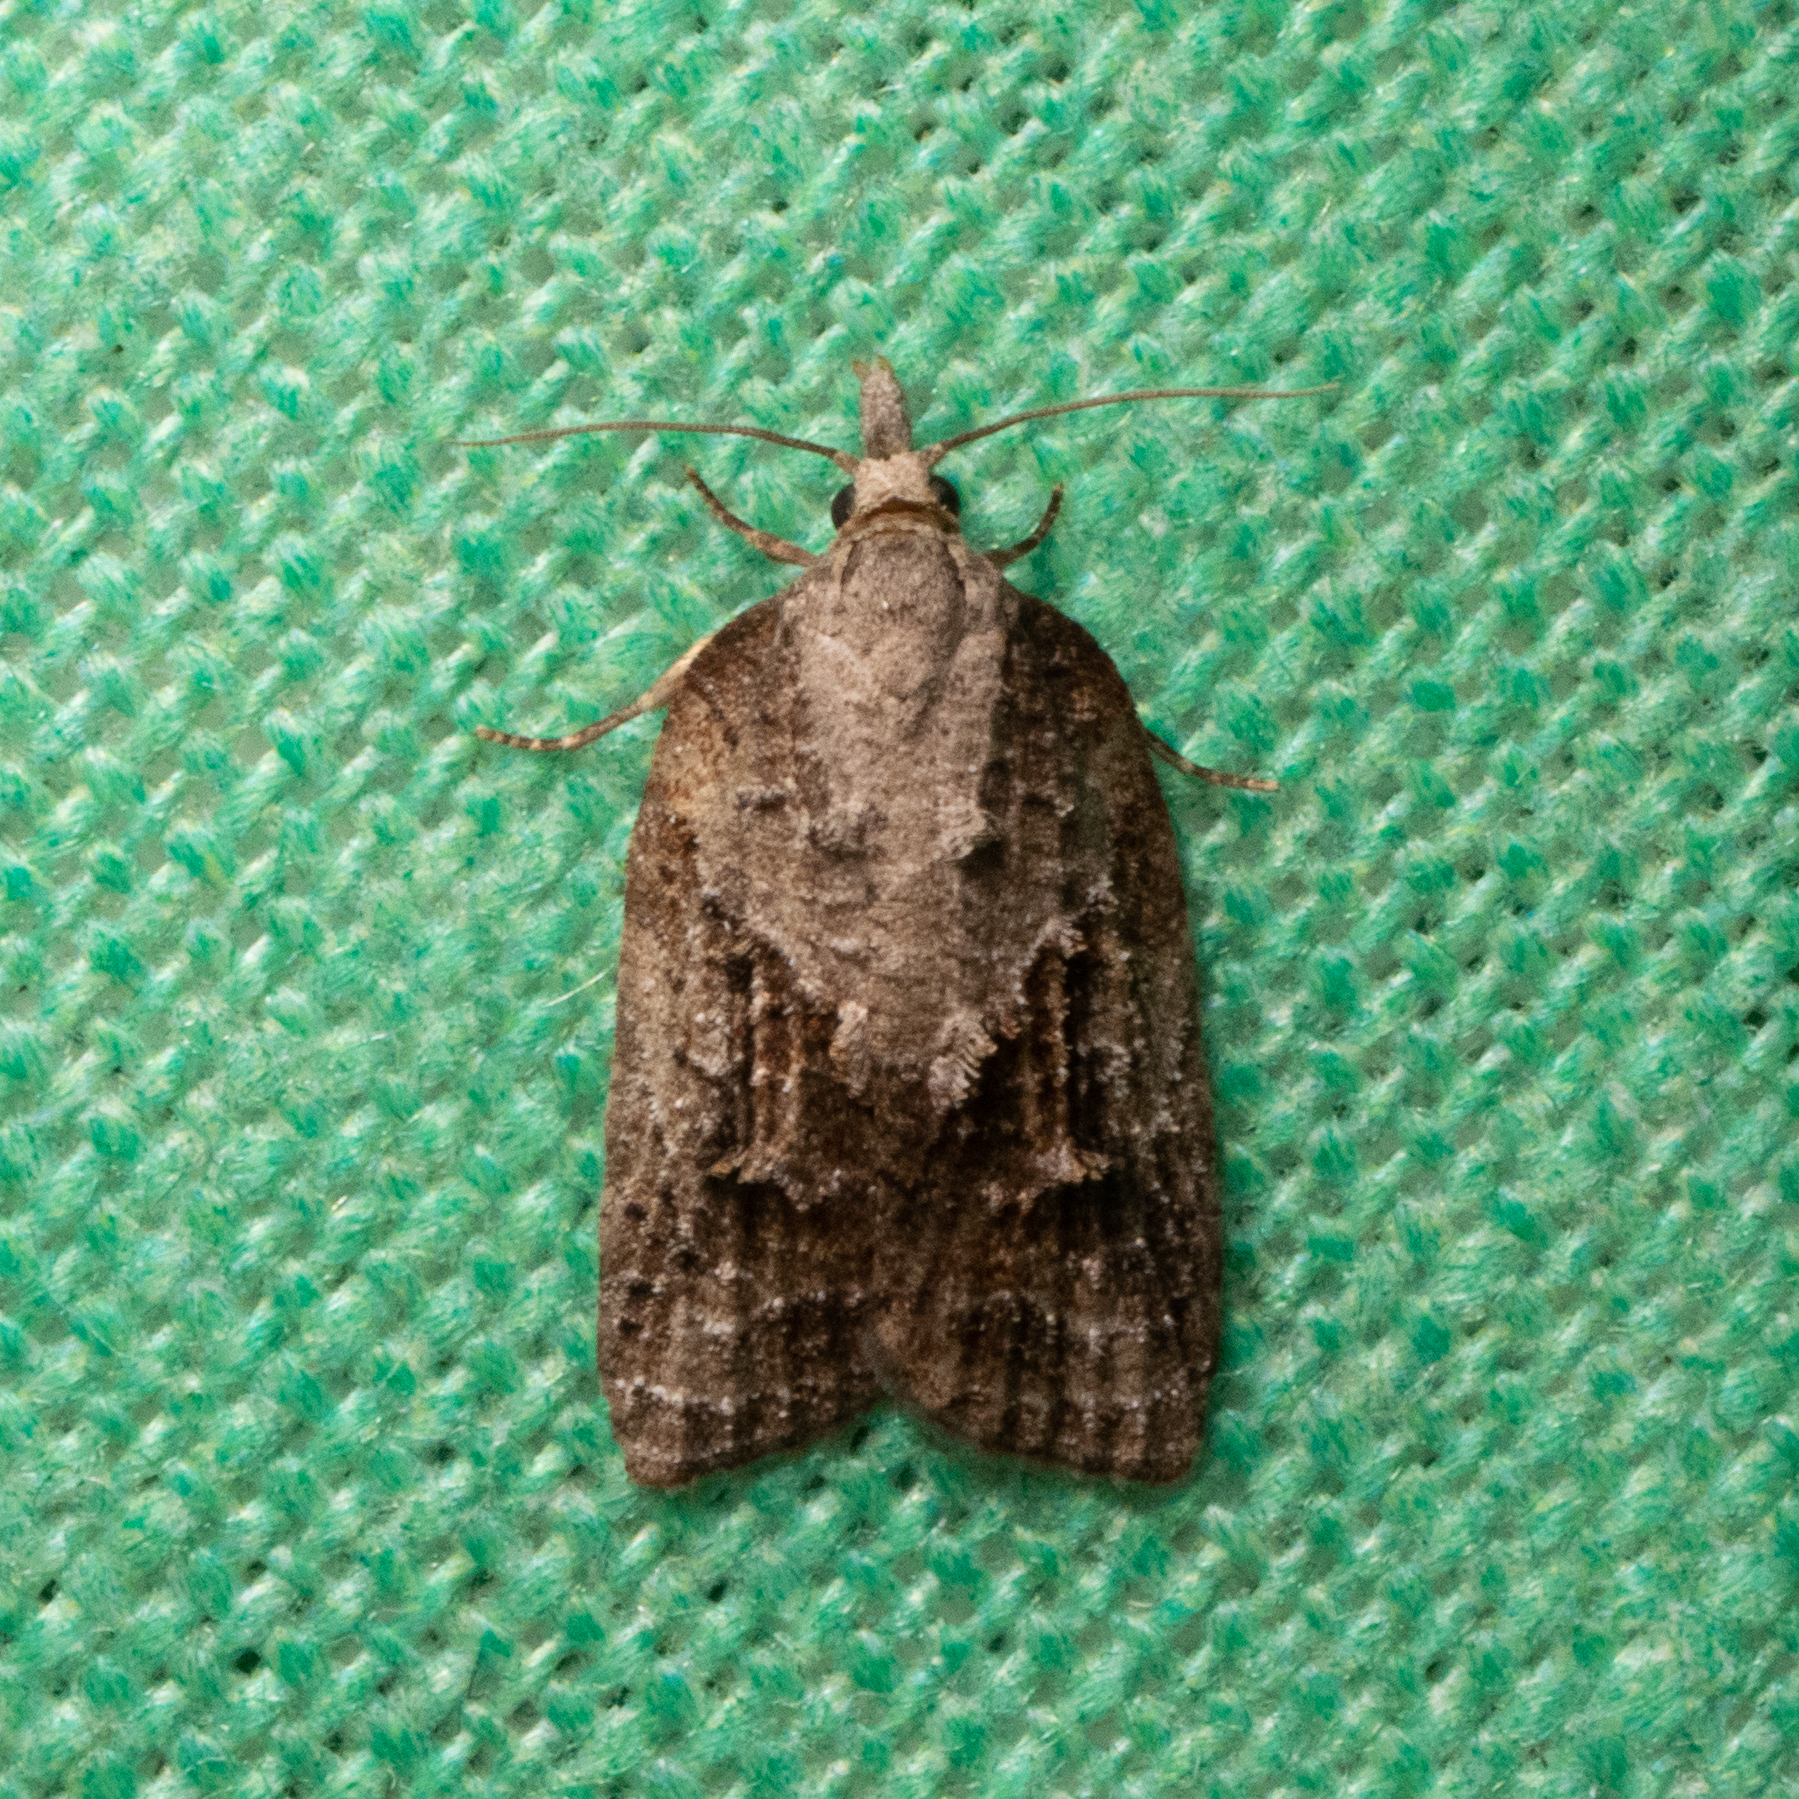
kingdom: Animalia
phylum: Arthropoda
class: Insecta
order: Lepidoptera
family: Tortricidae
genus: Platynota
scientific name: Platynota idaeusalis
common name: Tufted apple bud moth
